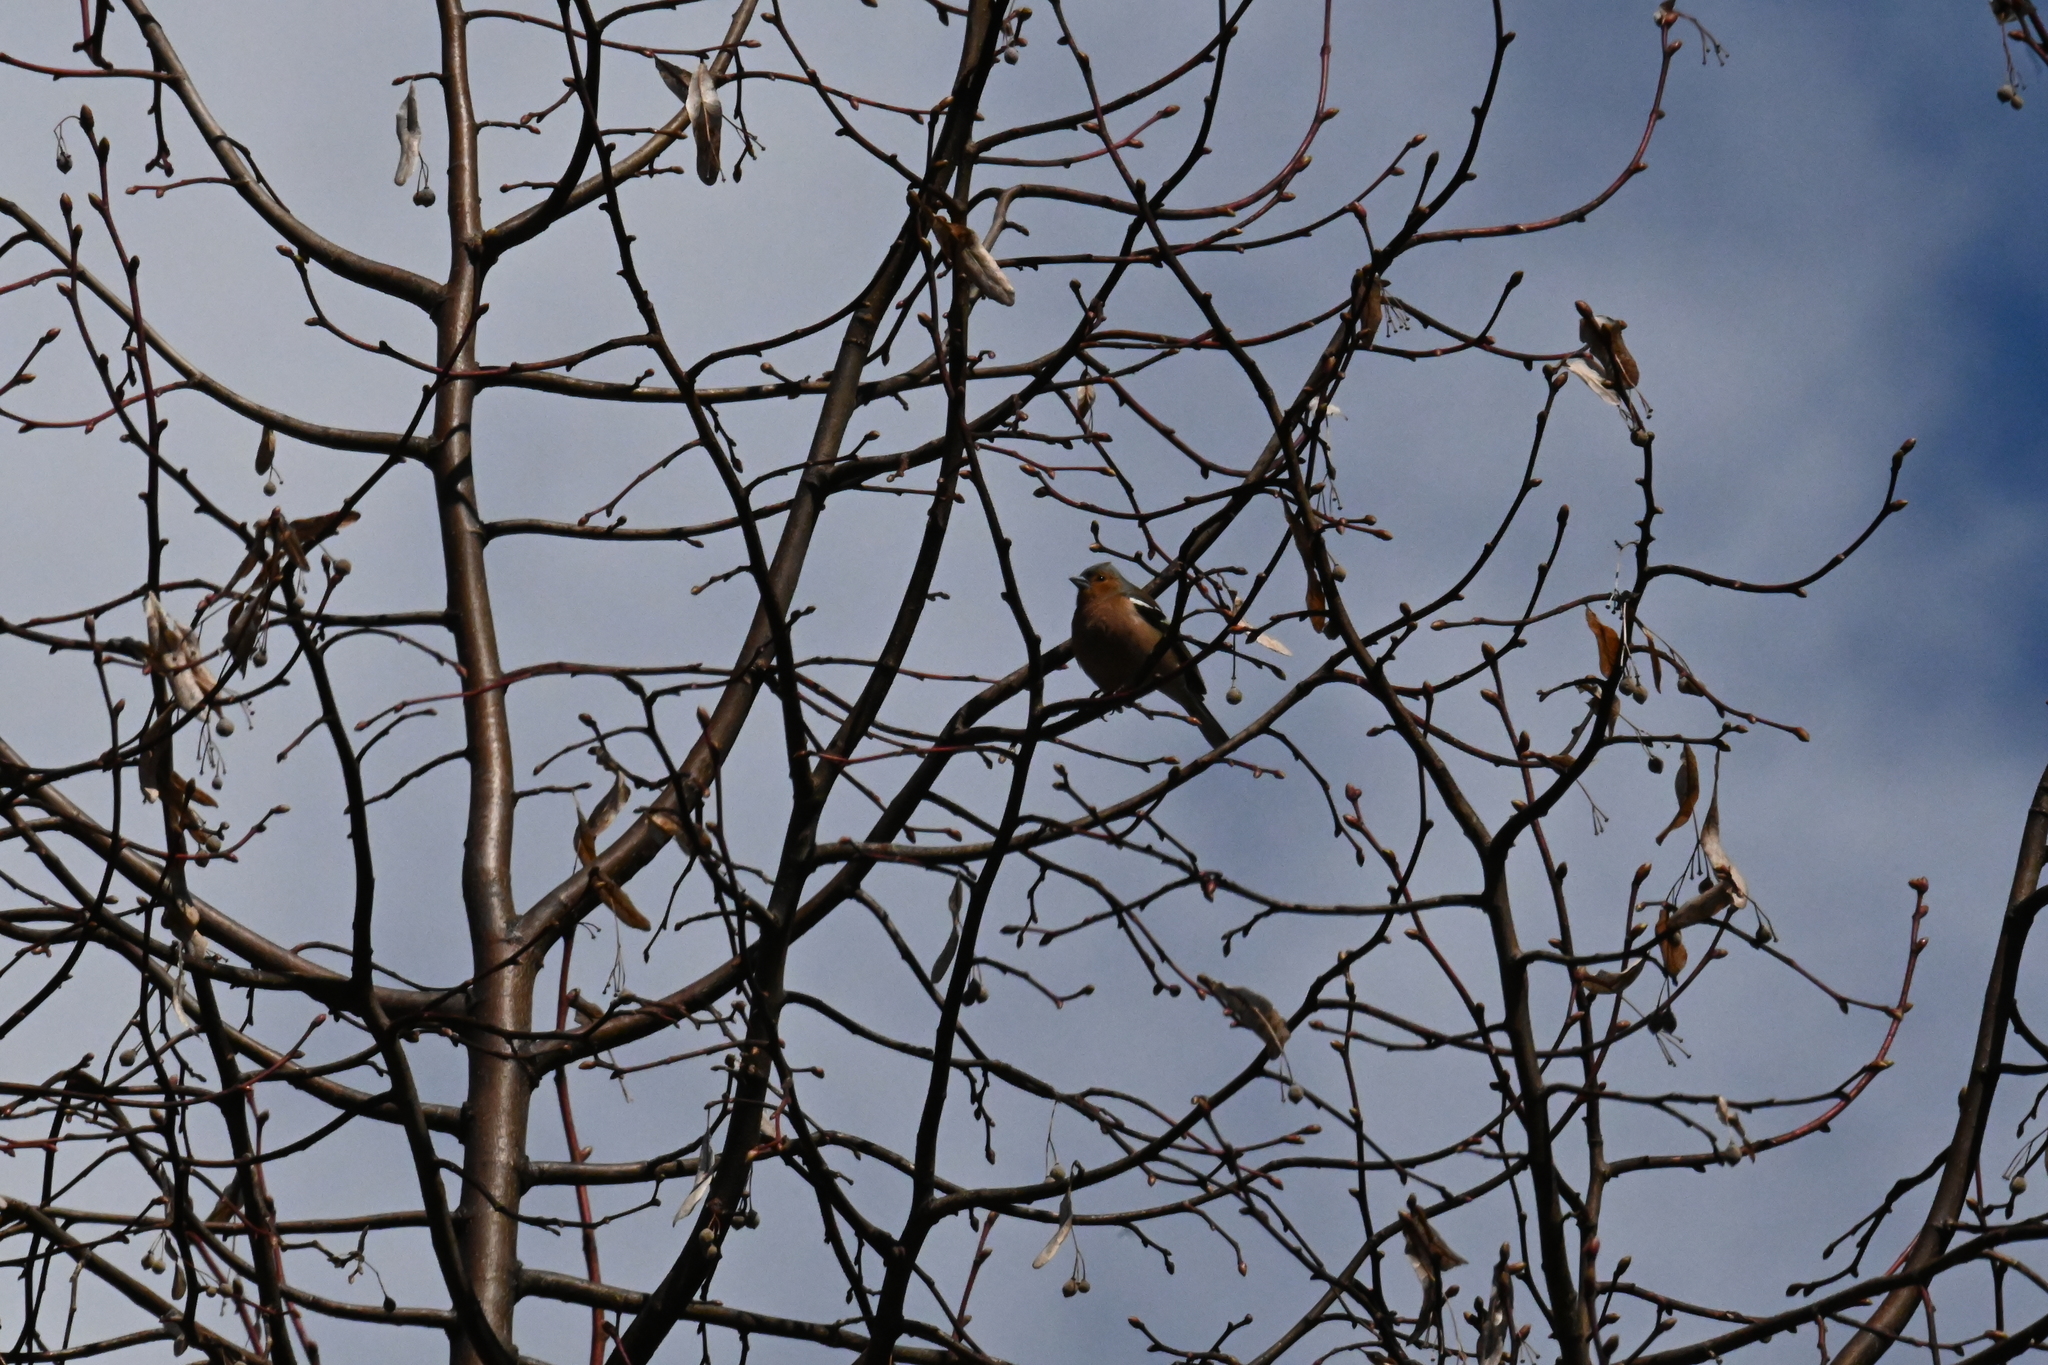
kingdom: Animalia
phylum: Chordata
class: Aves
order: Passeriformes
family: Fringillidae
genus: Fringilla
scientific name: Fringilla coelebs
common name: Common chaffinch
